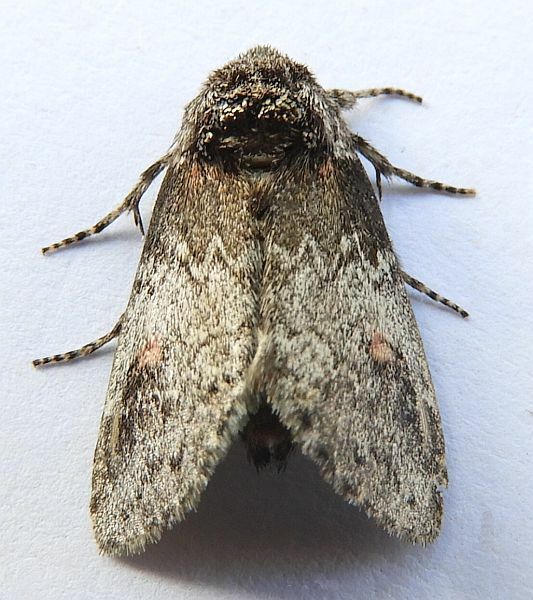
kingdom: Animalia
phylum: Arthropoda
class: Insecta
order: Lepidoptera
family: Notodontidae
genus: Kalkoma
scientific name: Kalkoma zapata
